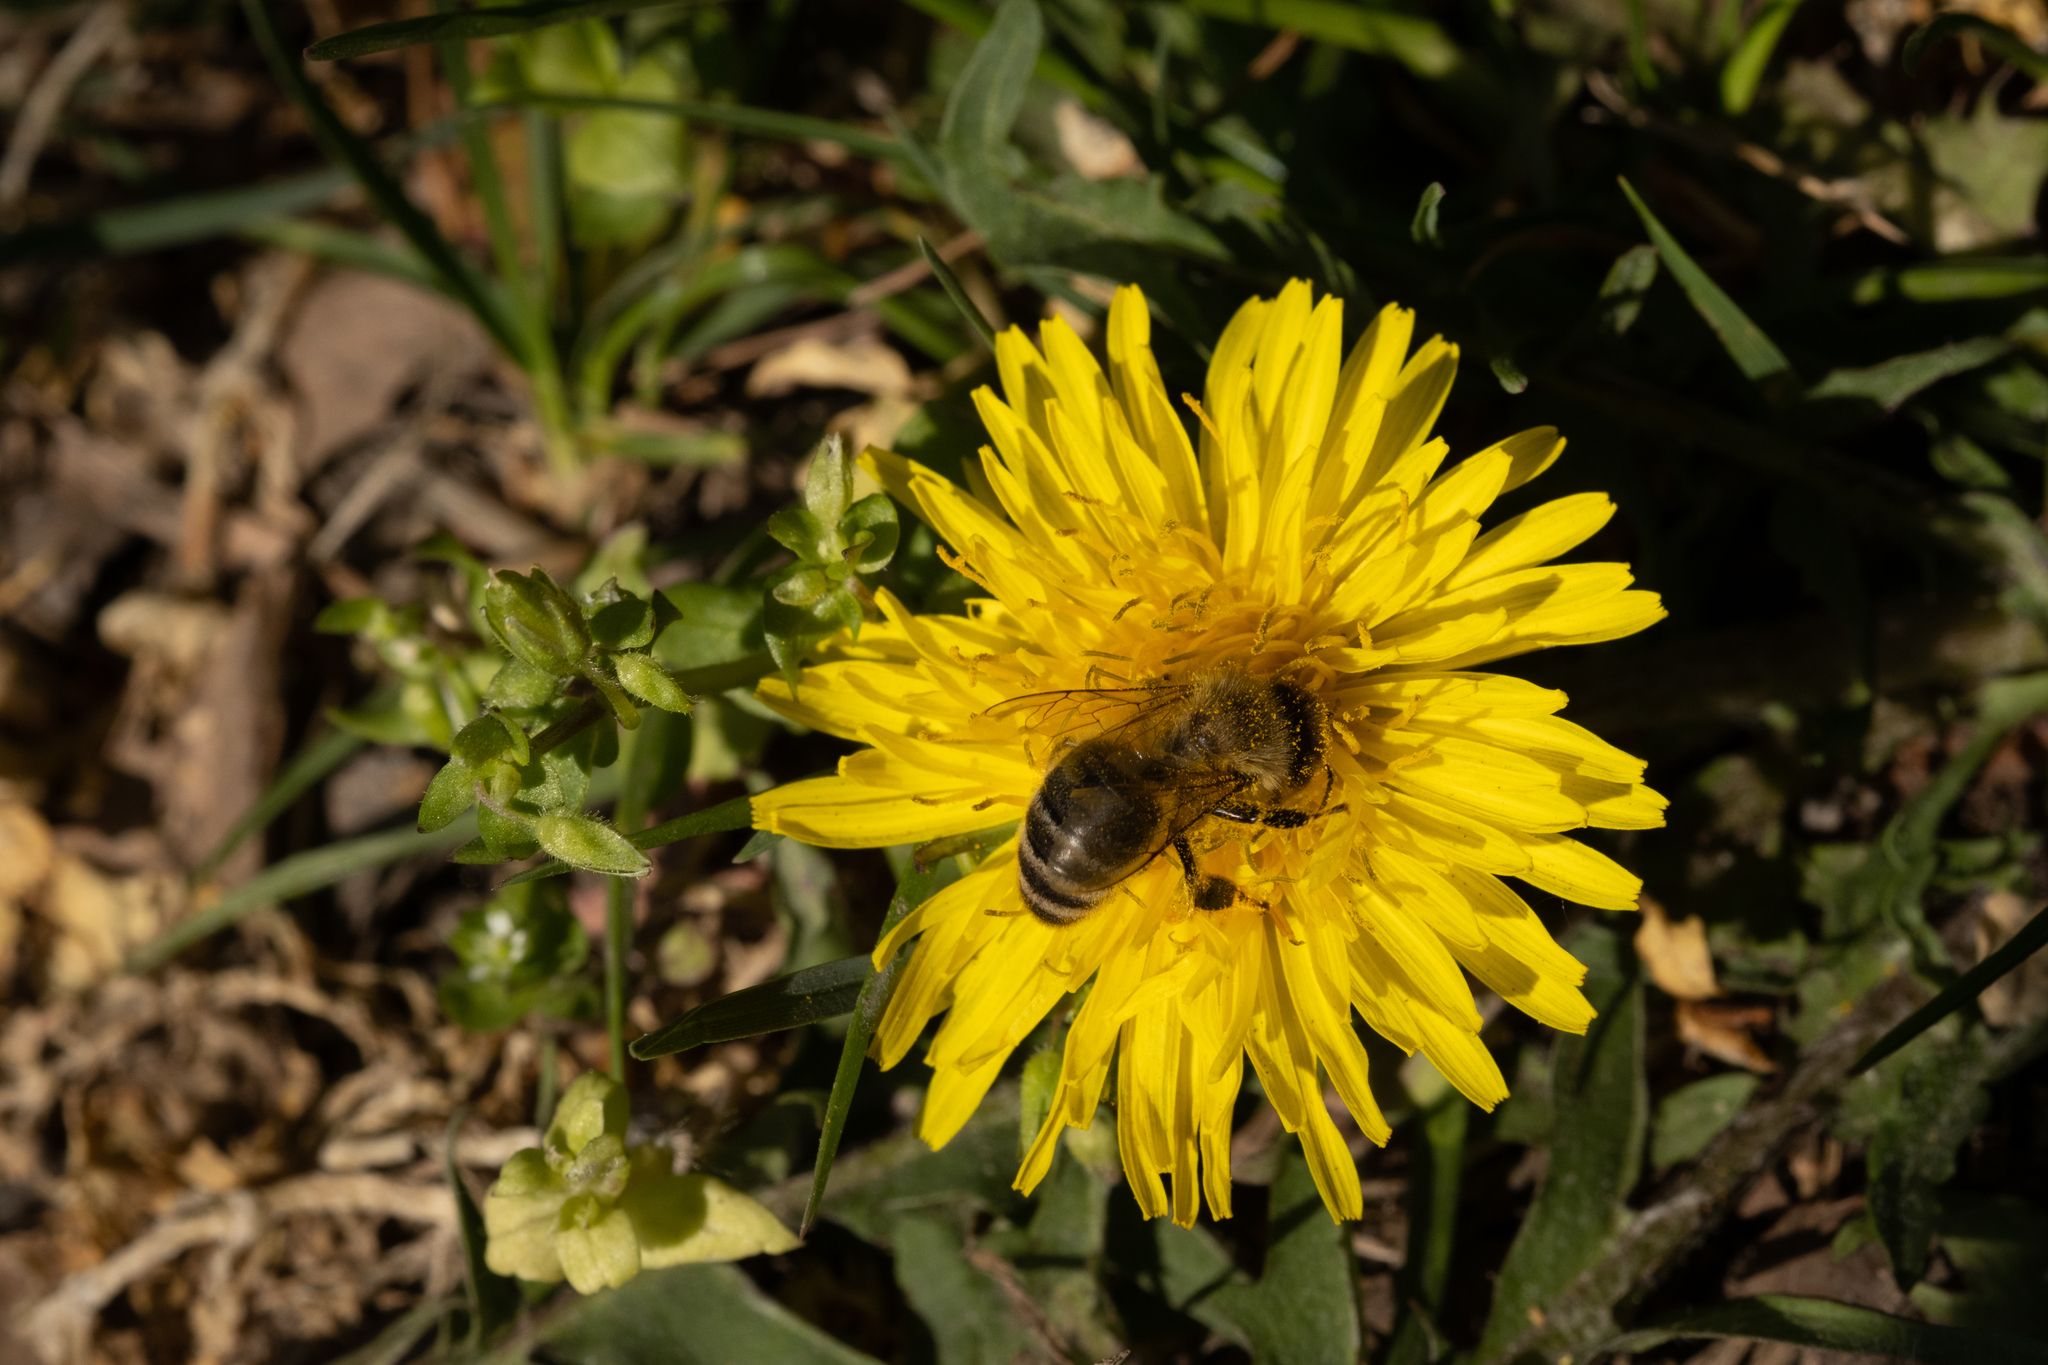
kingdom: Animalia
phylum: Arthropoda
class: Insecta
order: Hymenoptera
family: Apidae
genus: Apis
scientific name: Apis mellifera
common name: Honey bee
